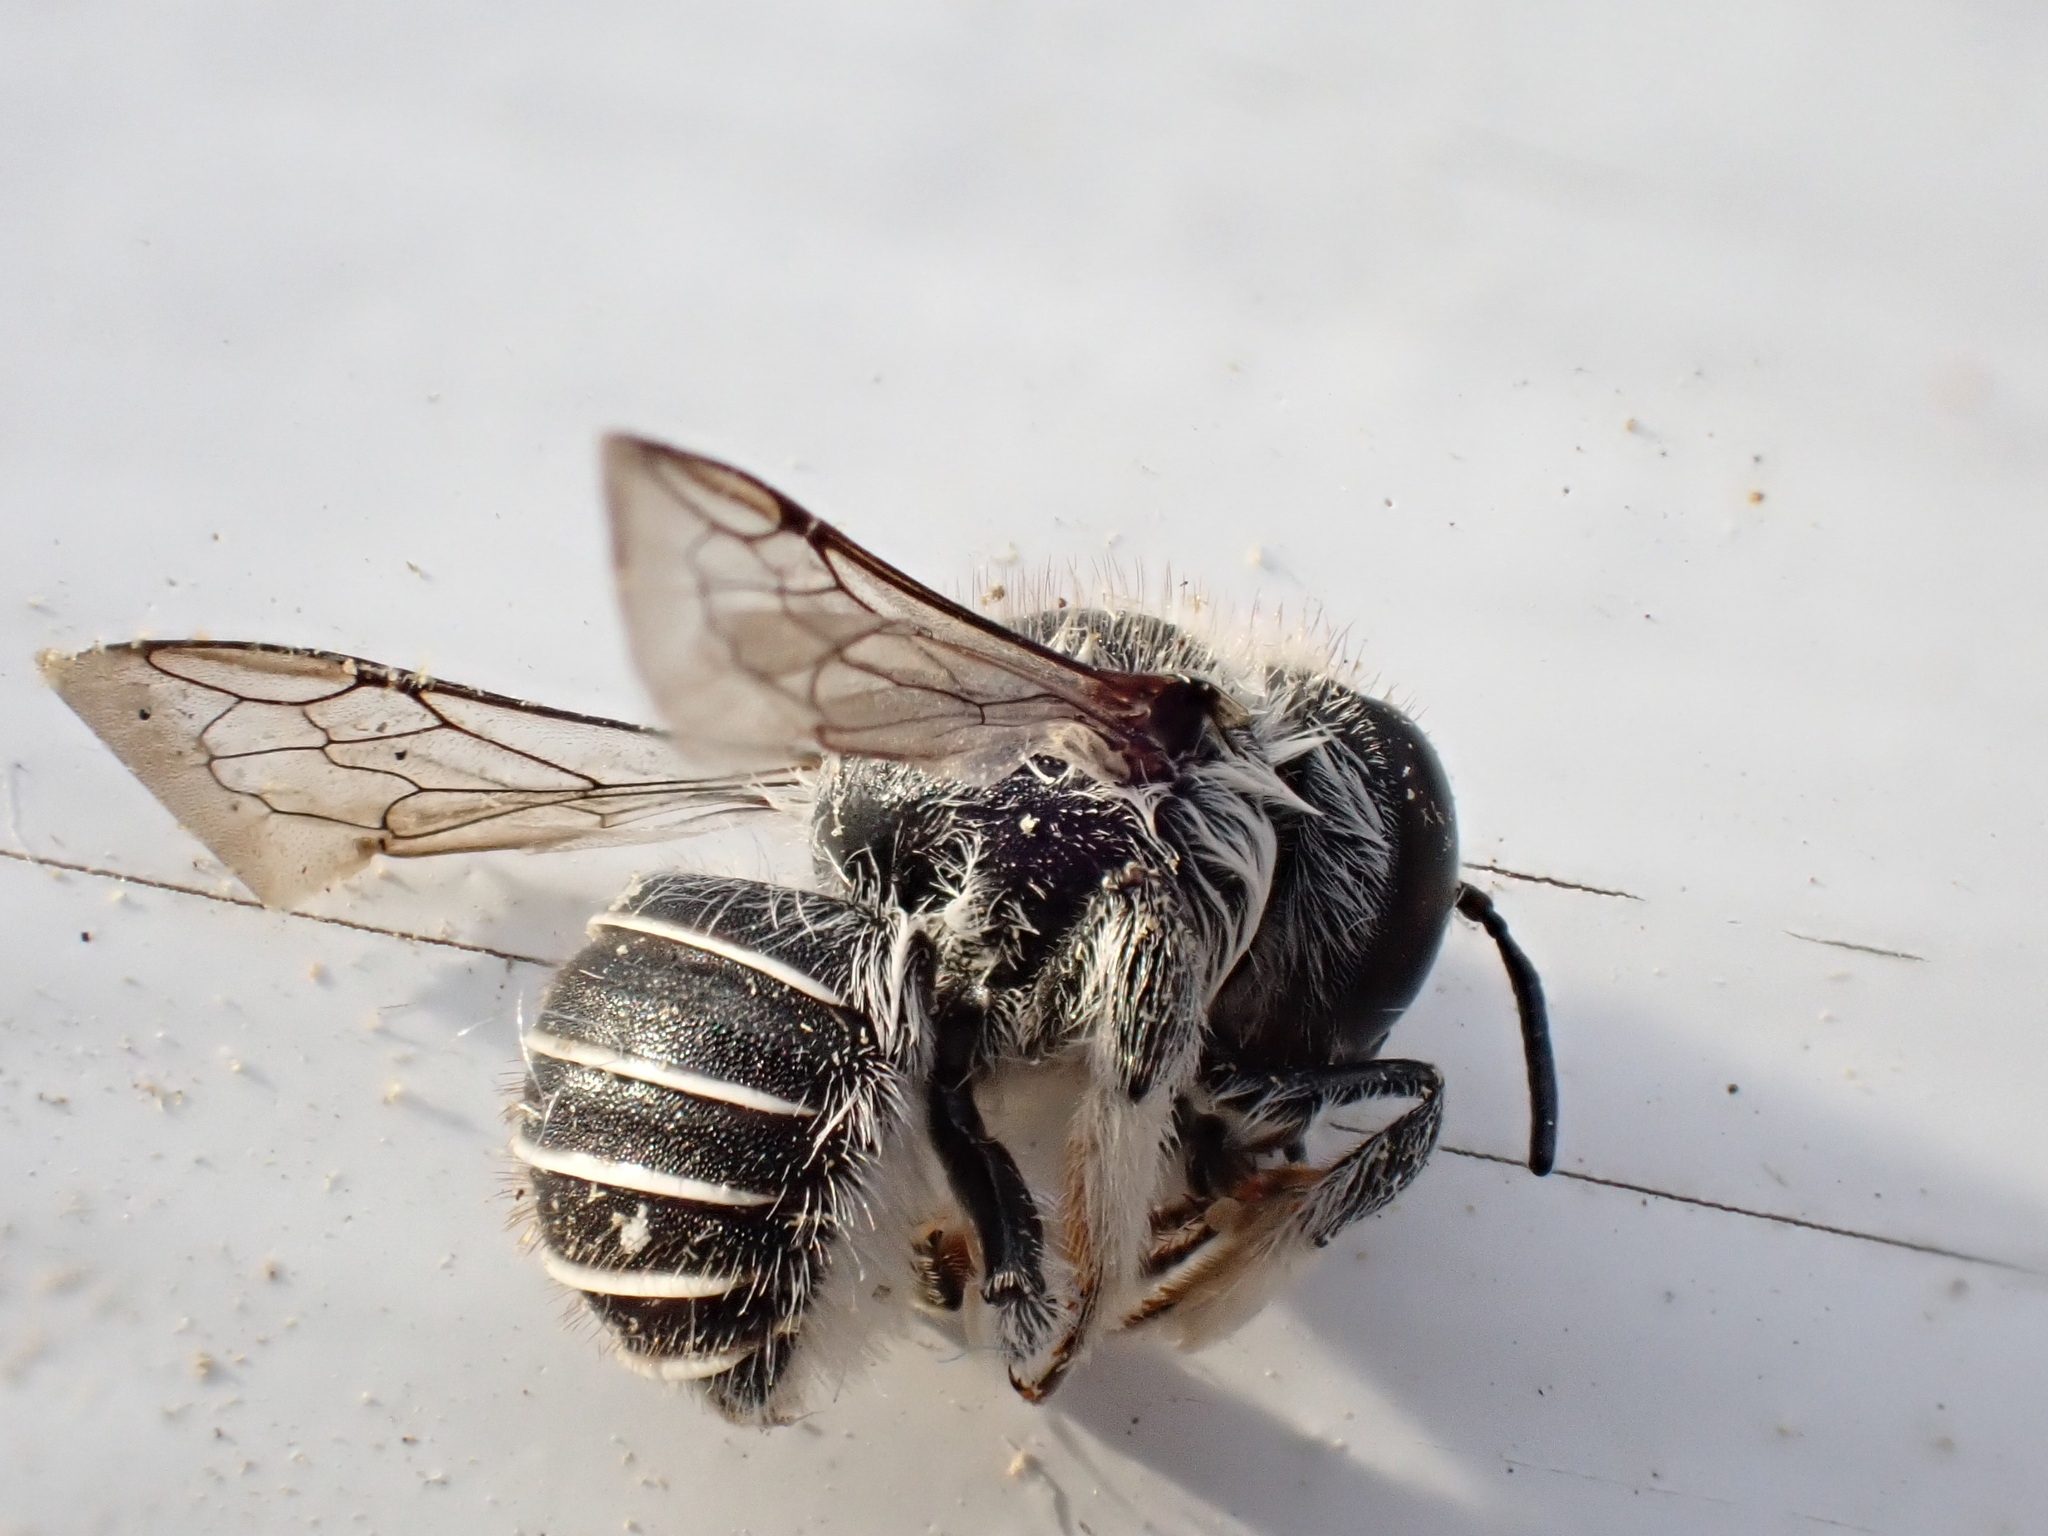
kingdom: Animalia
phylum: Arthropoda
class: Insecta
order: Hymenoptera
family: Megachilidae
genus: Pseudoanthidium
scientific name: Pseudoanthidium repetitum
